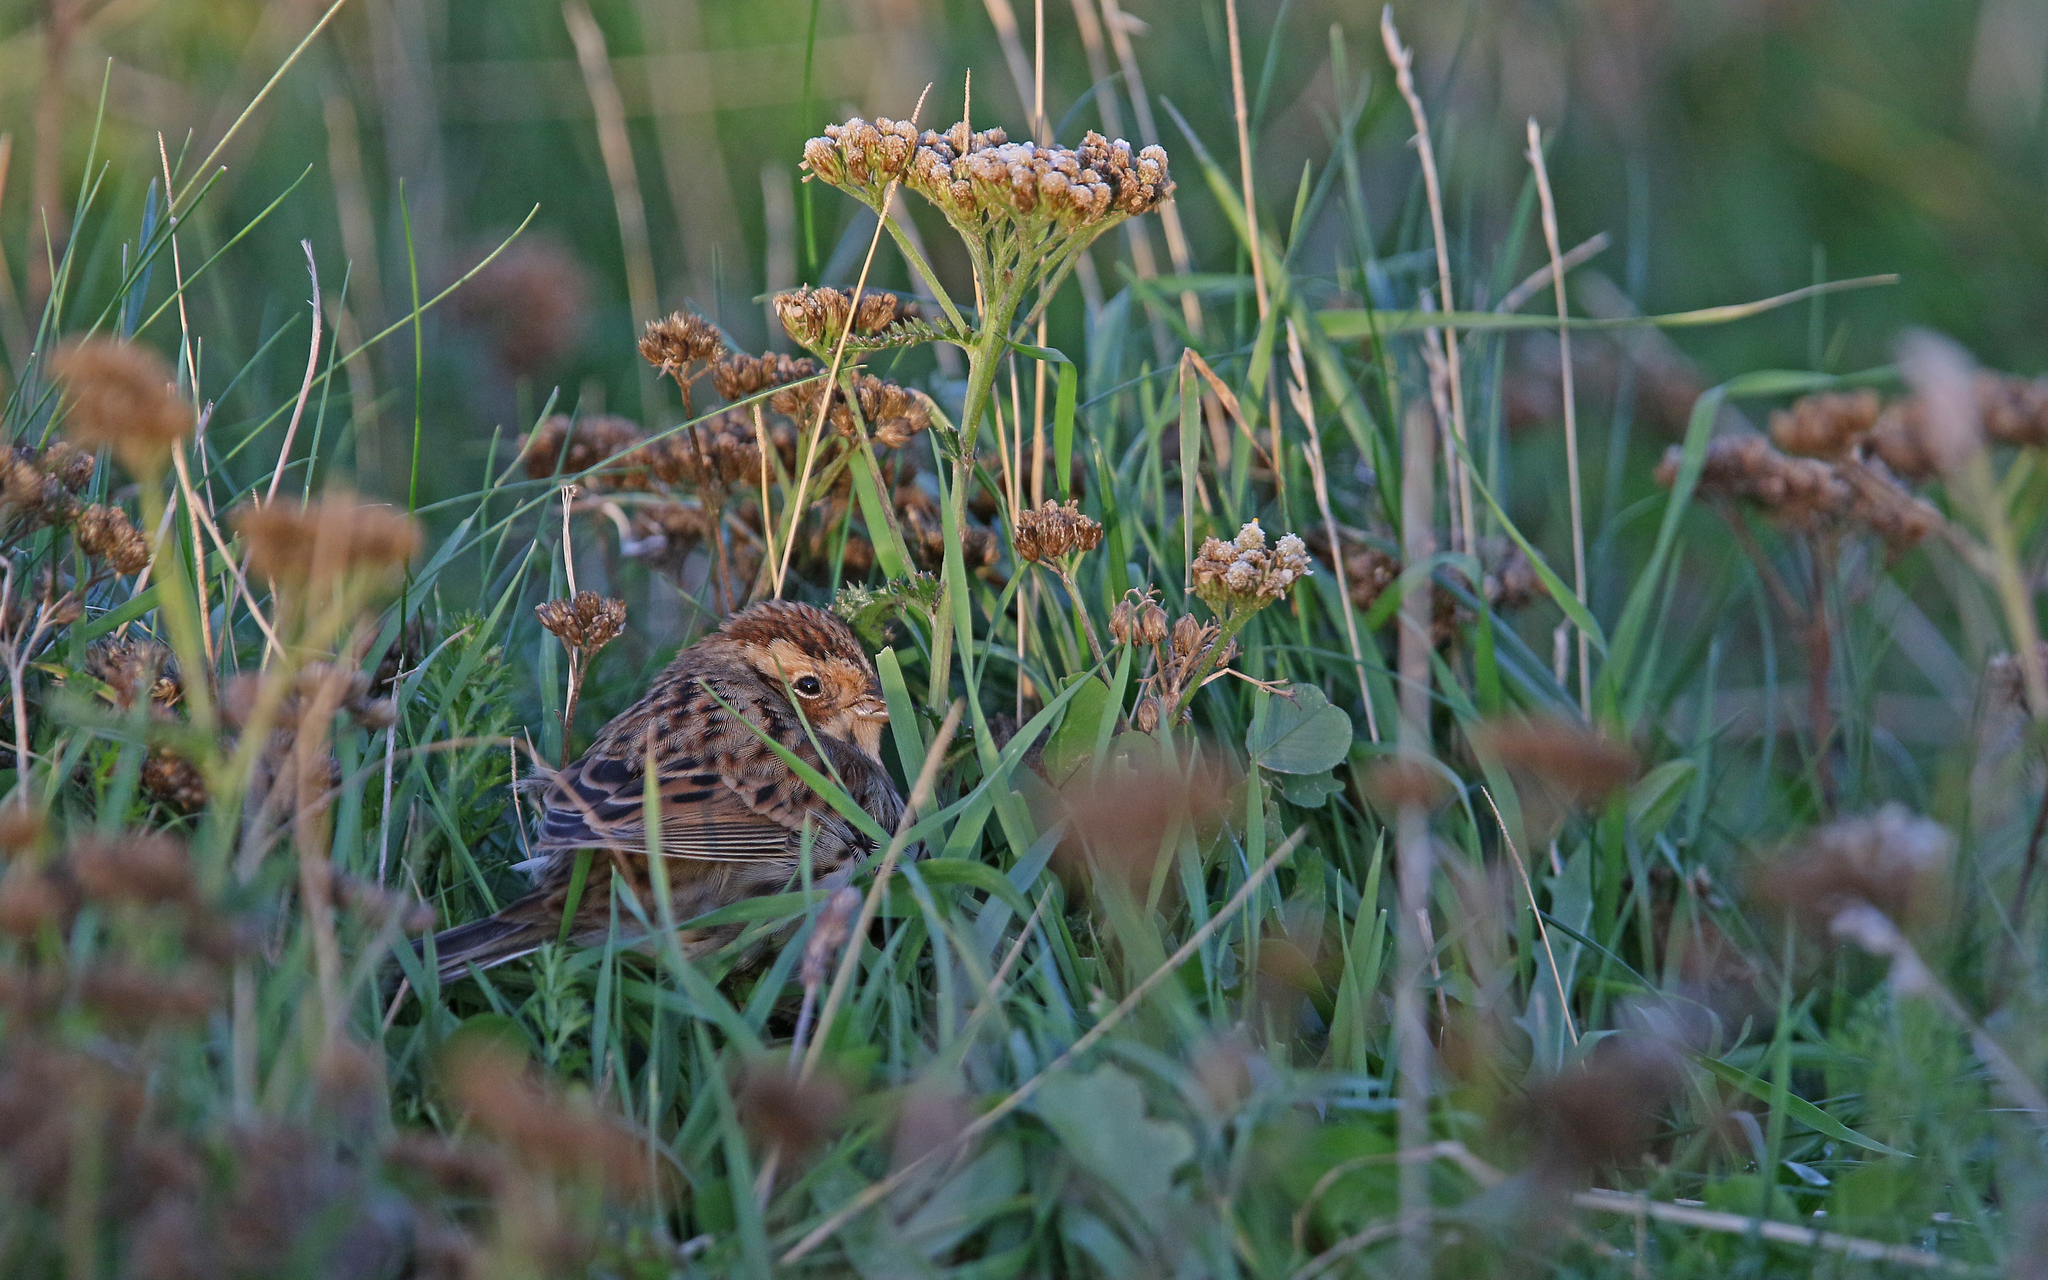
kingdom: Animalia
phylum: Chordata
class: Aves
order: Passeriformes
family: Emberizidae
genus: Emberiza
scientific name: Emberiza pusilla
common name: Little bunting
